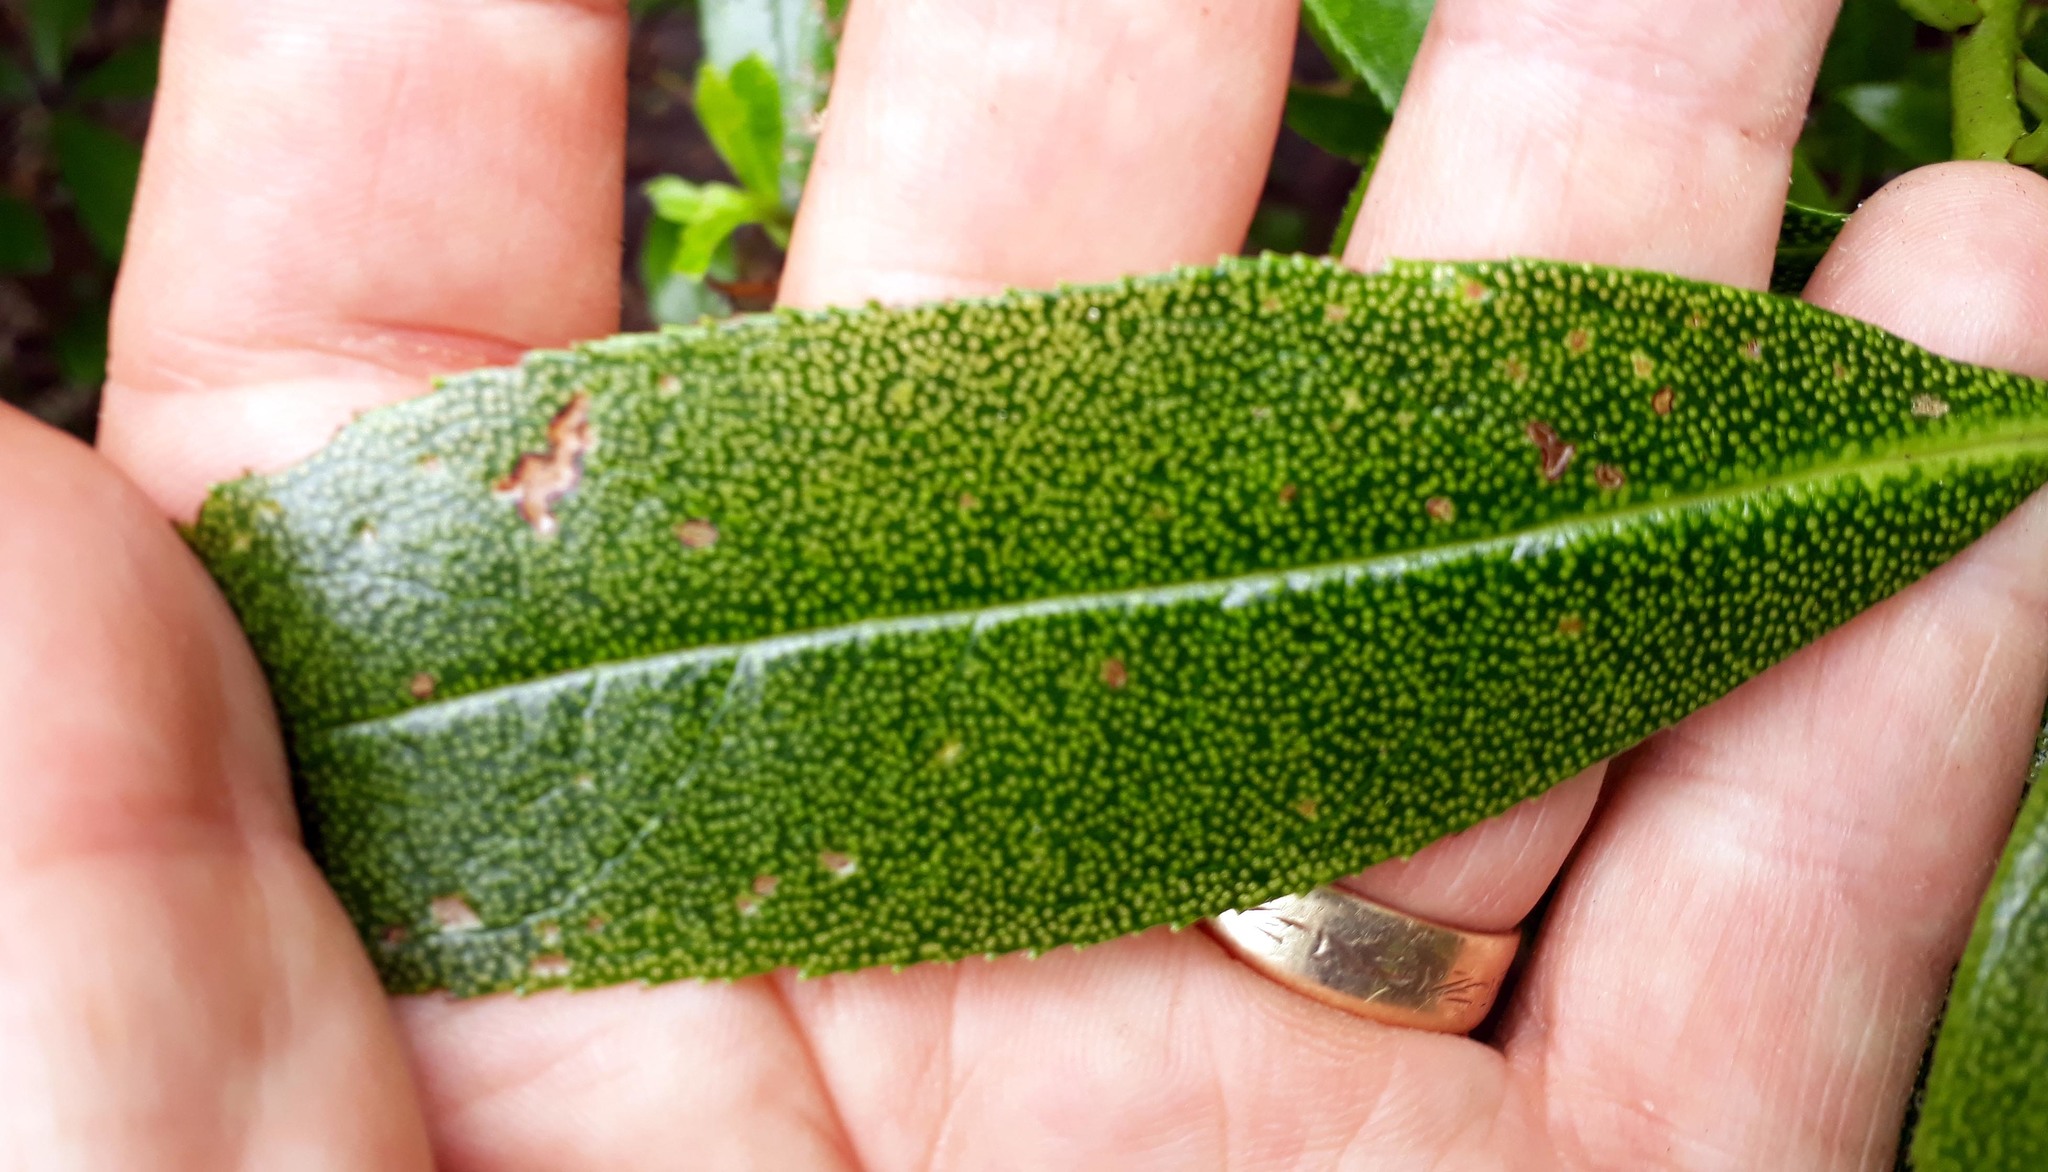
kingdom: Plantae
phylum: Tracheophyta
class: Magnoliopsida
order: Lamiales
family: Scrophulariaceae
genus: Myoporum
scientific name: Myoporum laetum
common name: Ngaio tree
